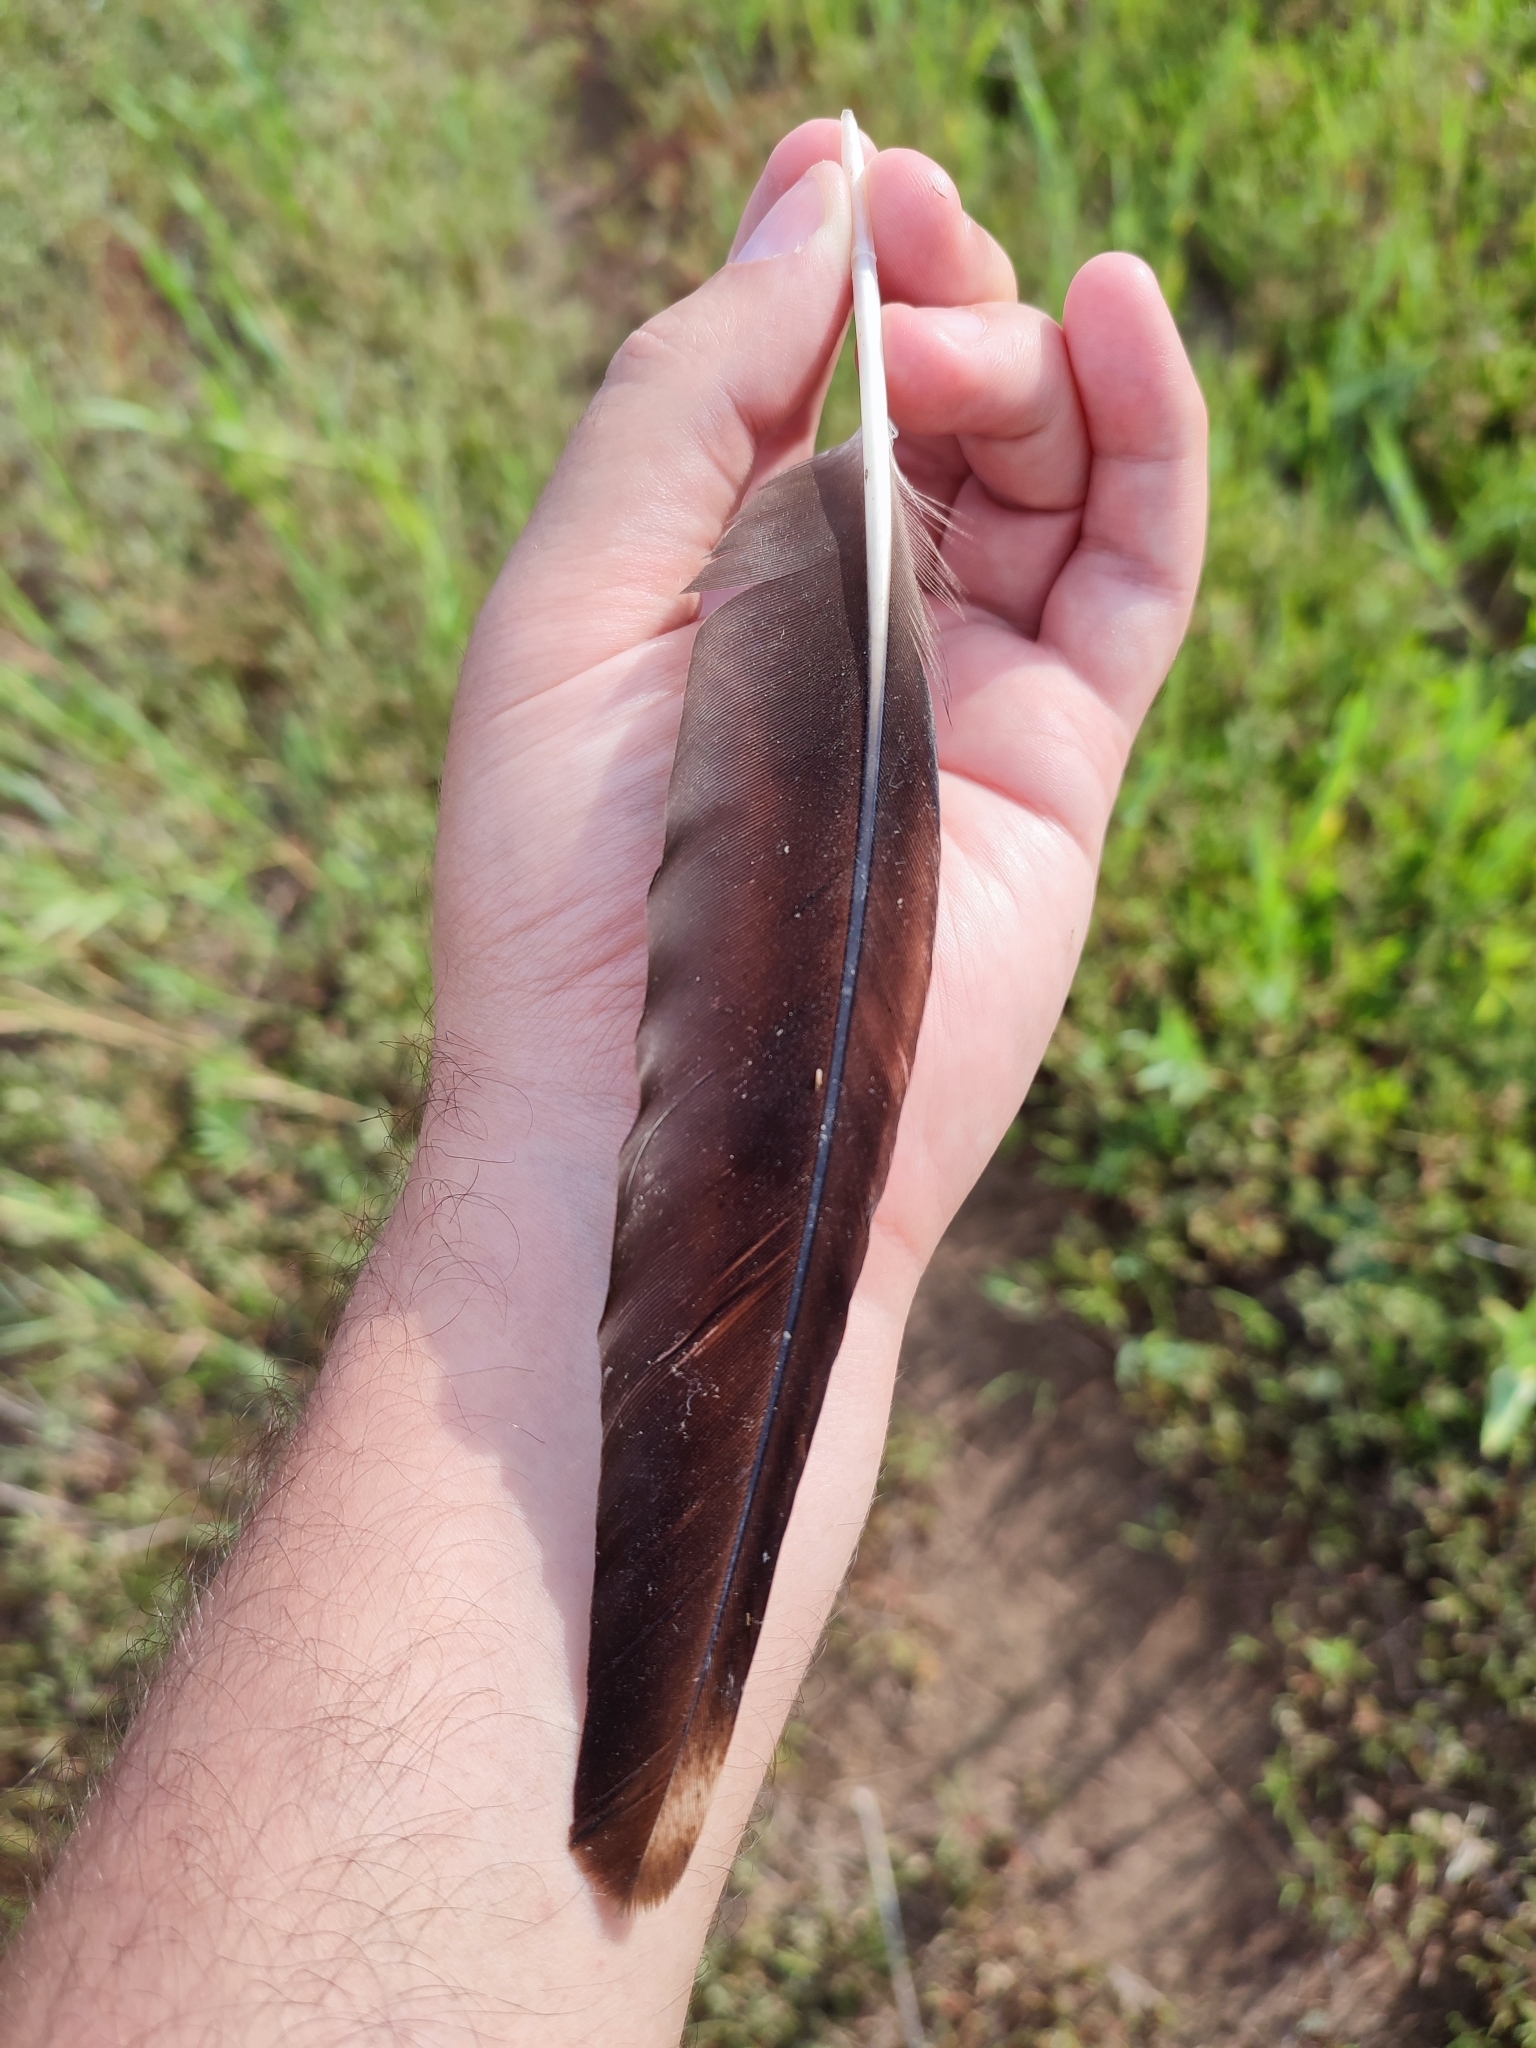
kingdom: Animalia
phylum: Chordata
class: Aves
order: Charadriiformes
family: Charadriidae
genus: Vanellus
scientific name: Vanellus vanellus
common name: Northern lapwing
